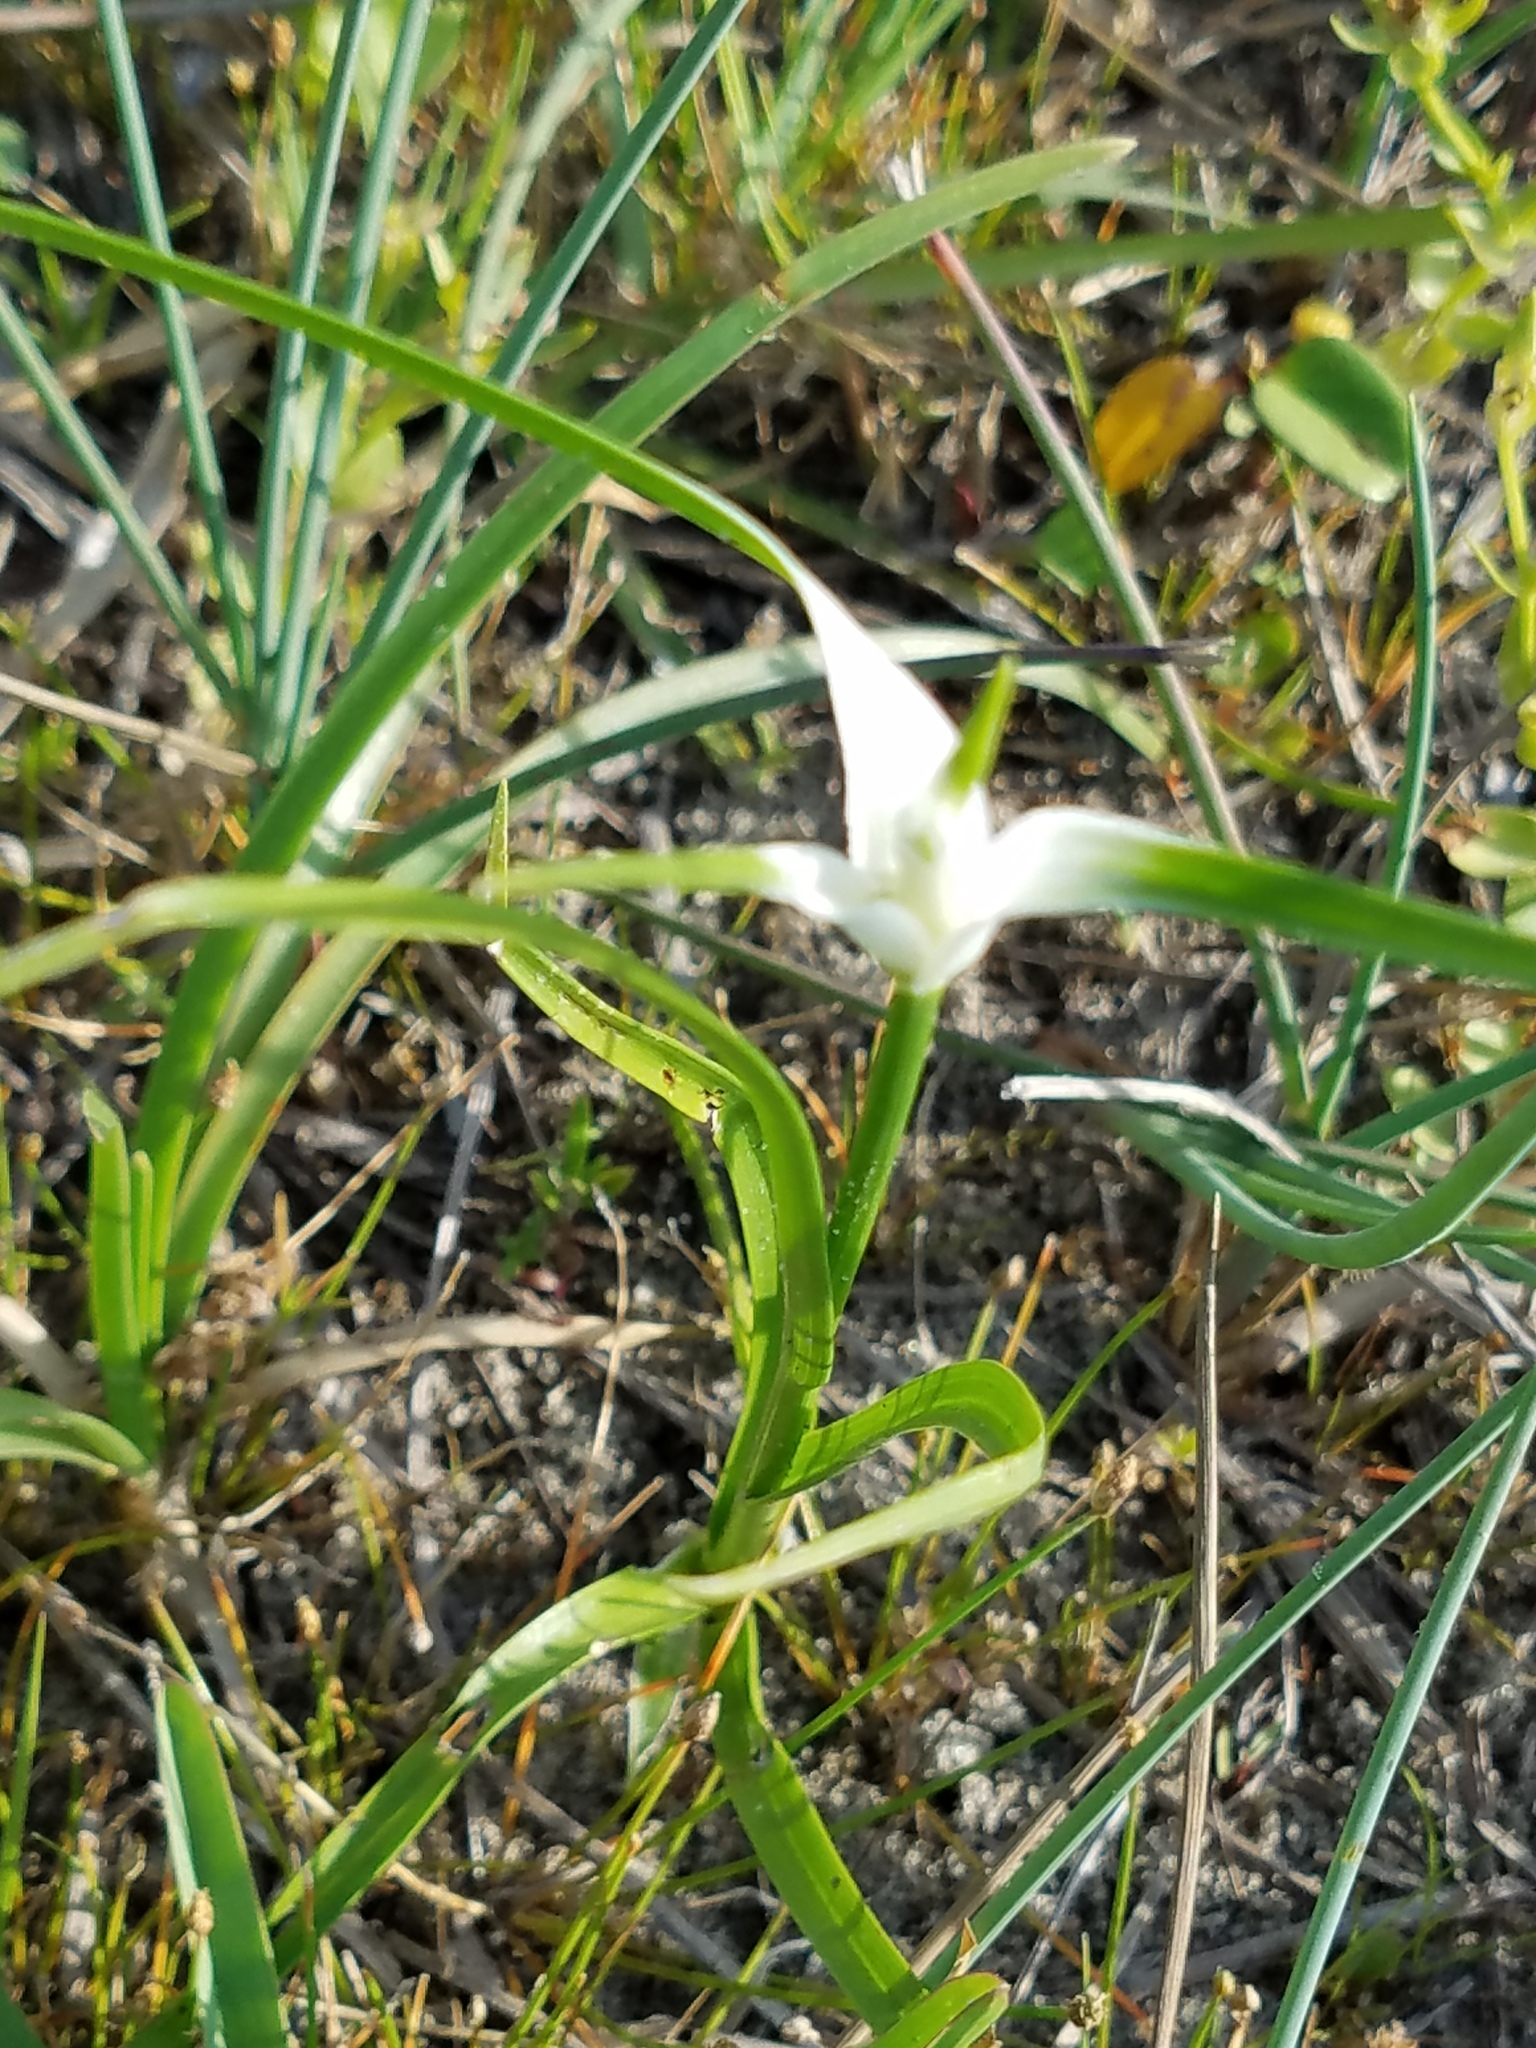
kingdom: Plantae
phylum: Tracheophyta
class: Liliopsida
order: Poales
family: Cyperaceae
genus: Rhynchospora
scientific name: Rhynchospora colorata
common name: Star sedge
